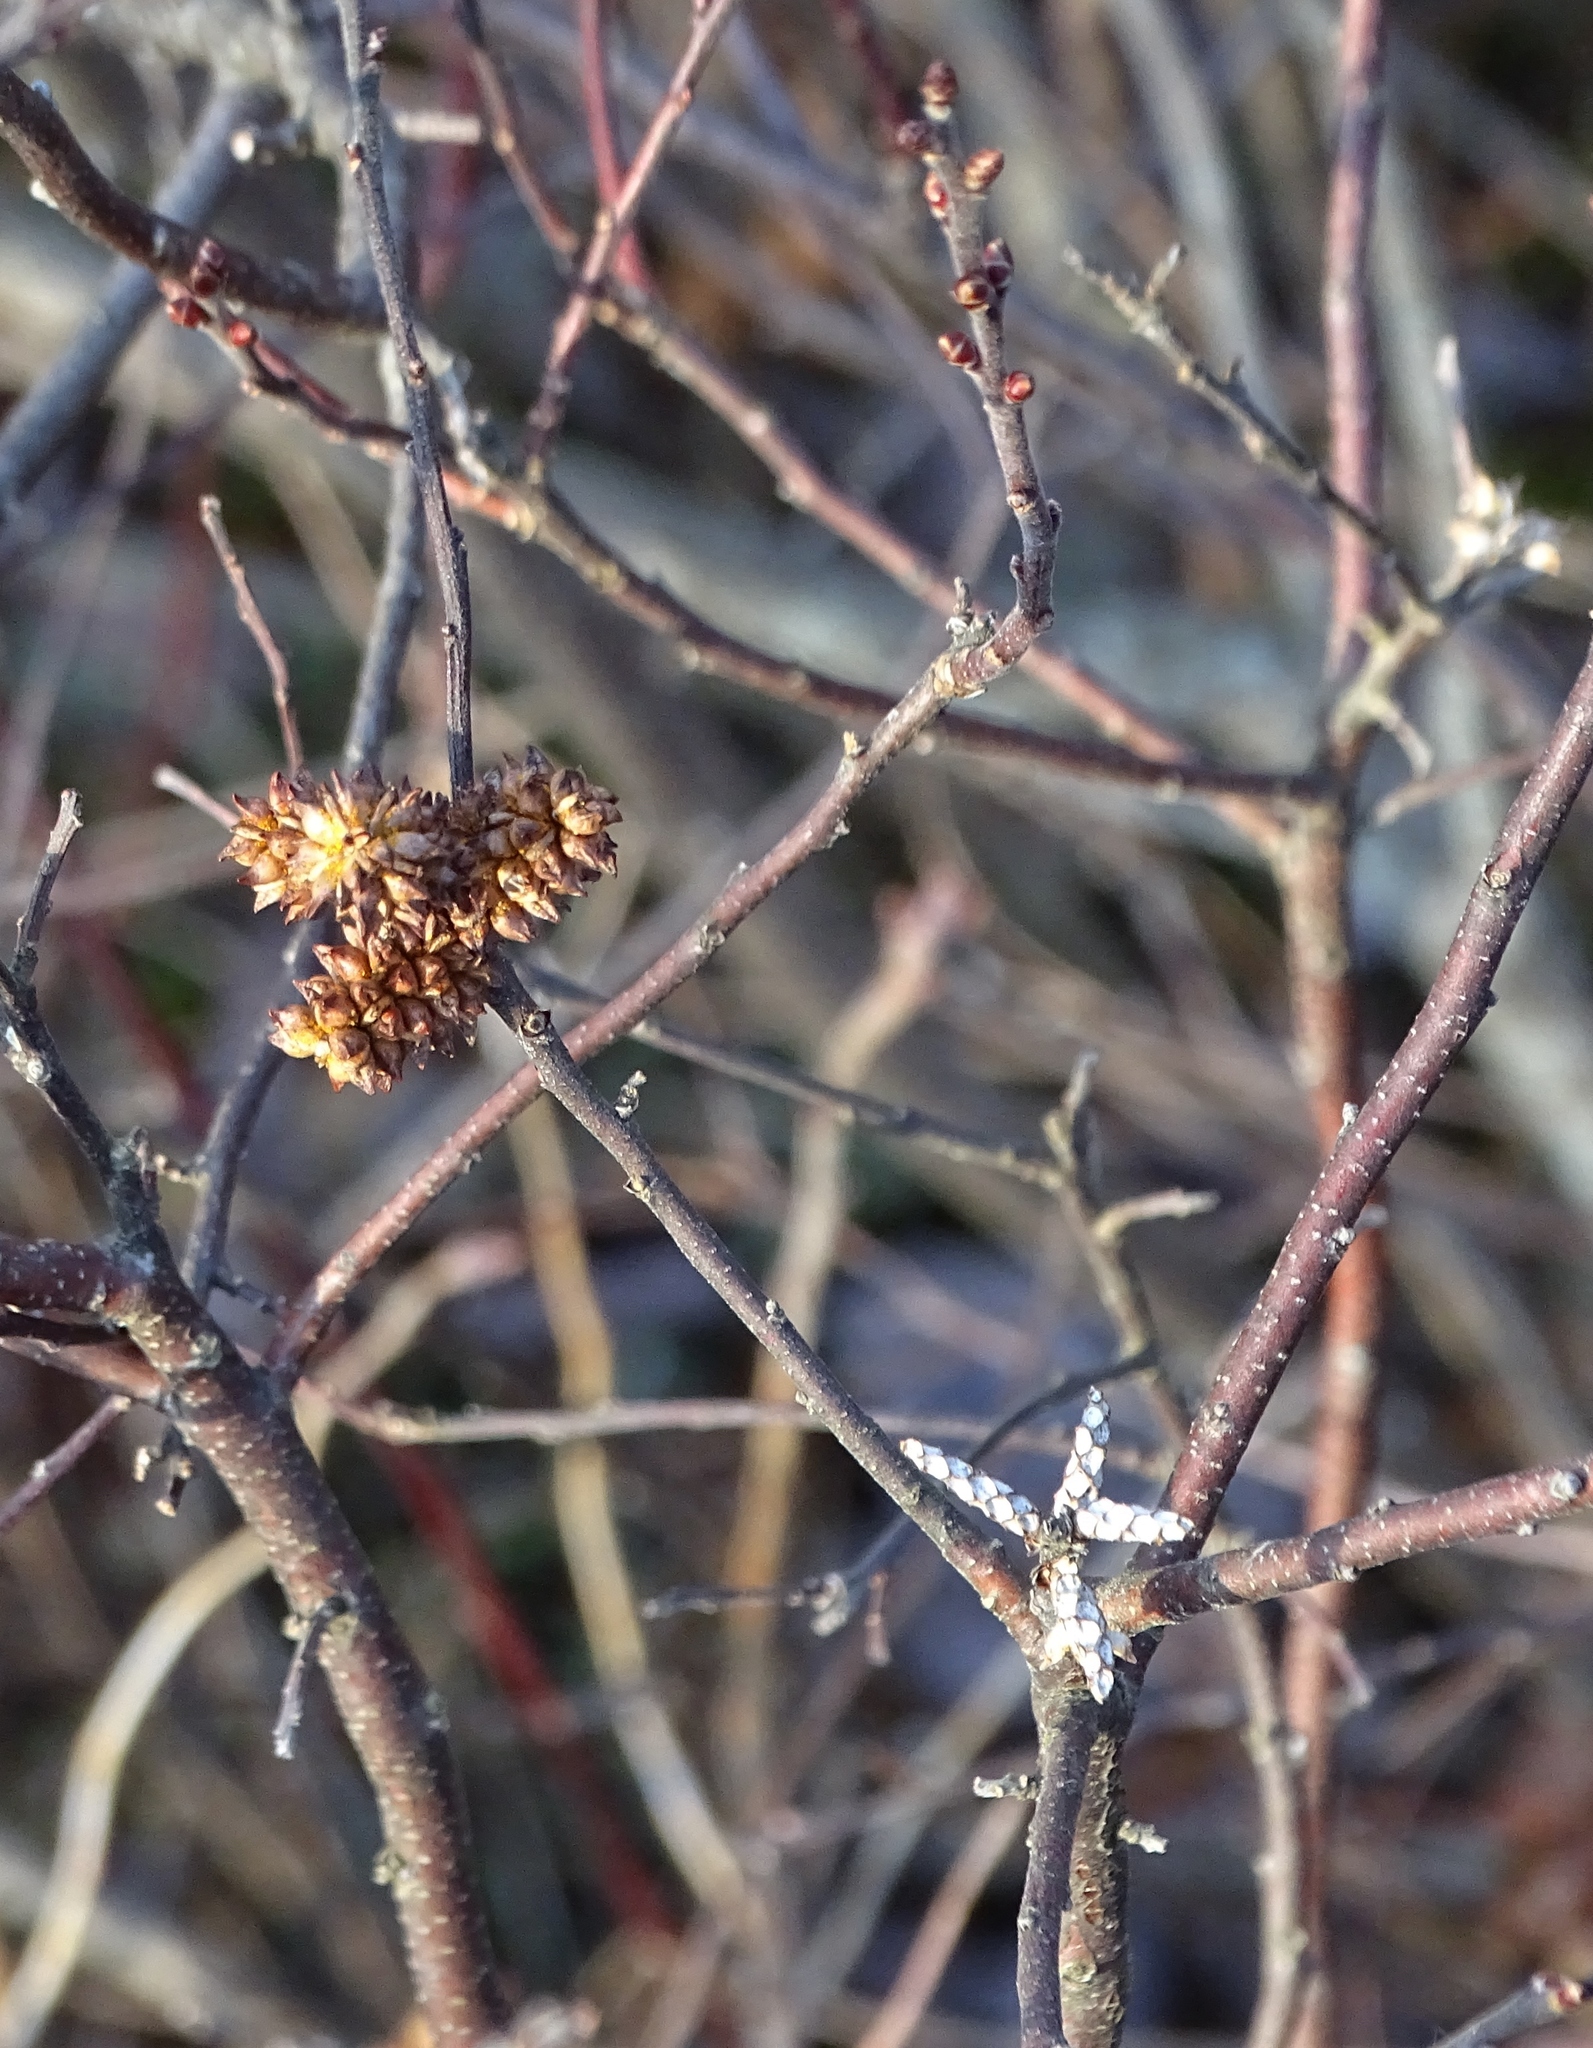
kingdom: Plantae
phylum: Tracheophyta
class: Magnoliopsida
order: Fagales
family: Betulaceae
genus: Alnus
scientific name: Alnus incana
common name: Grey alder
